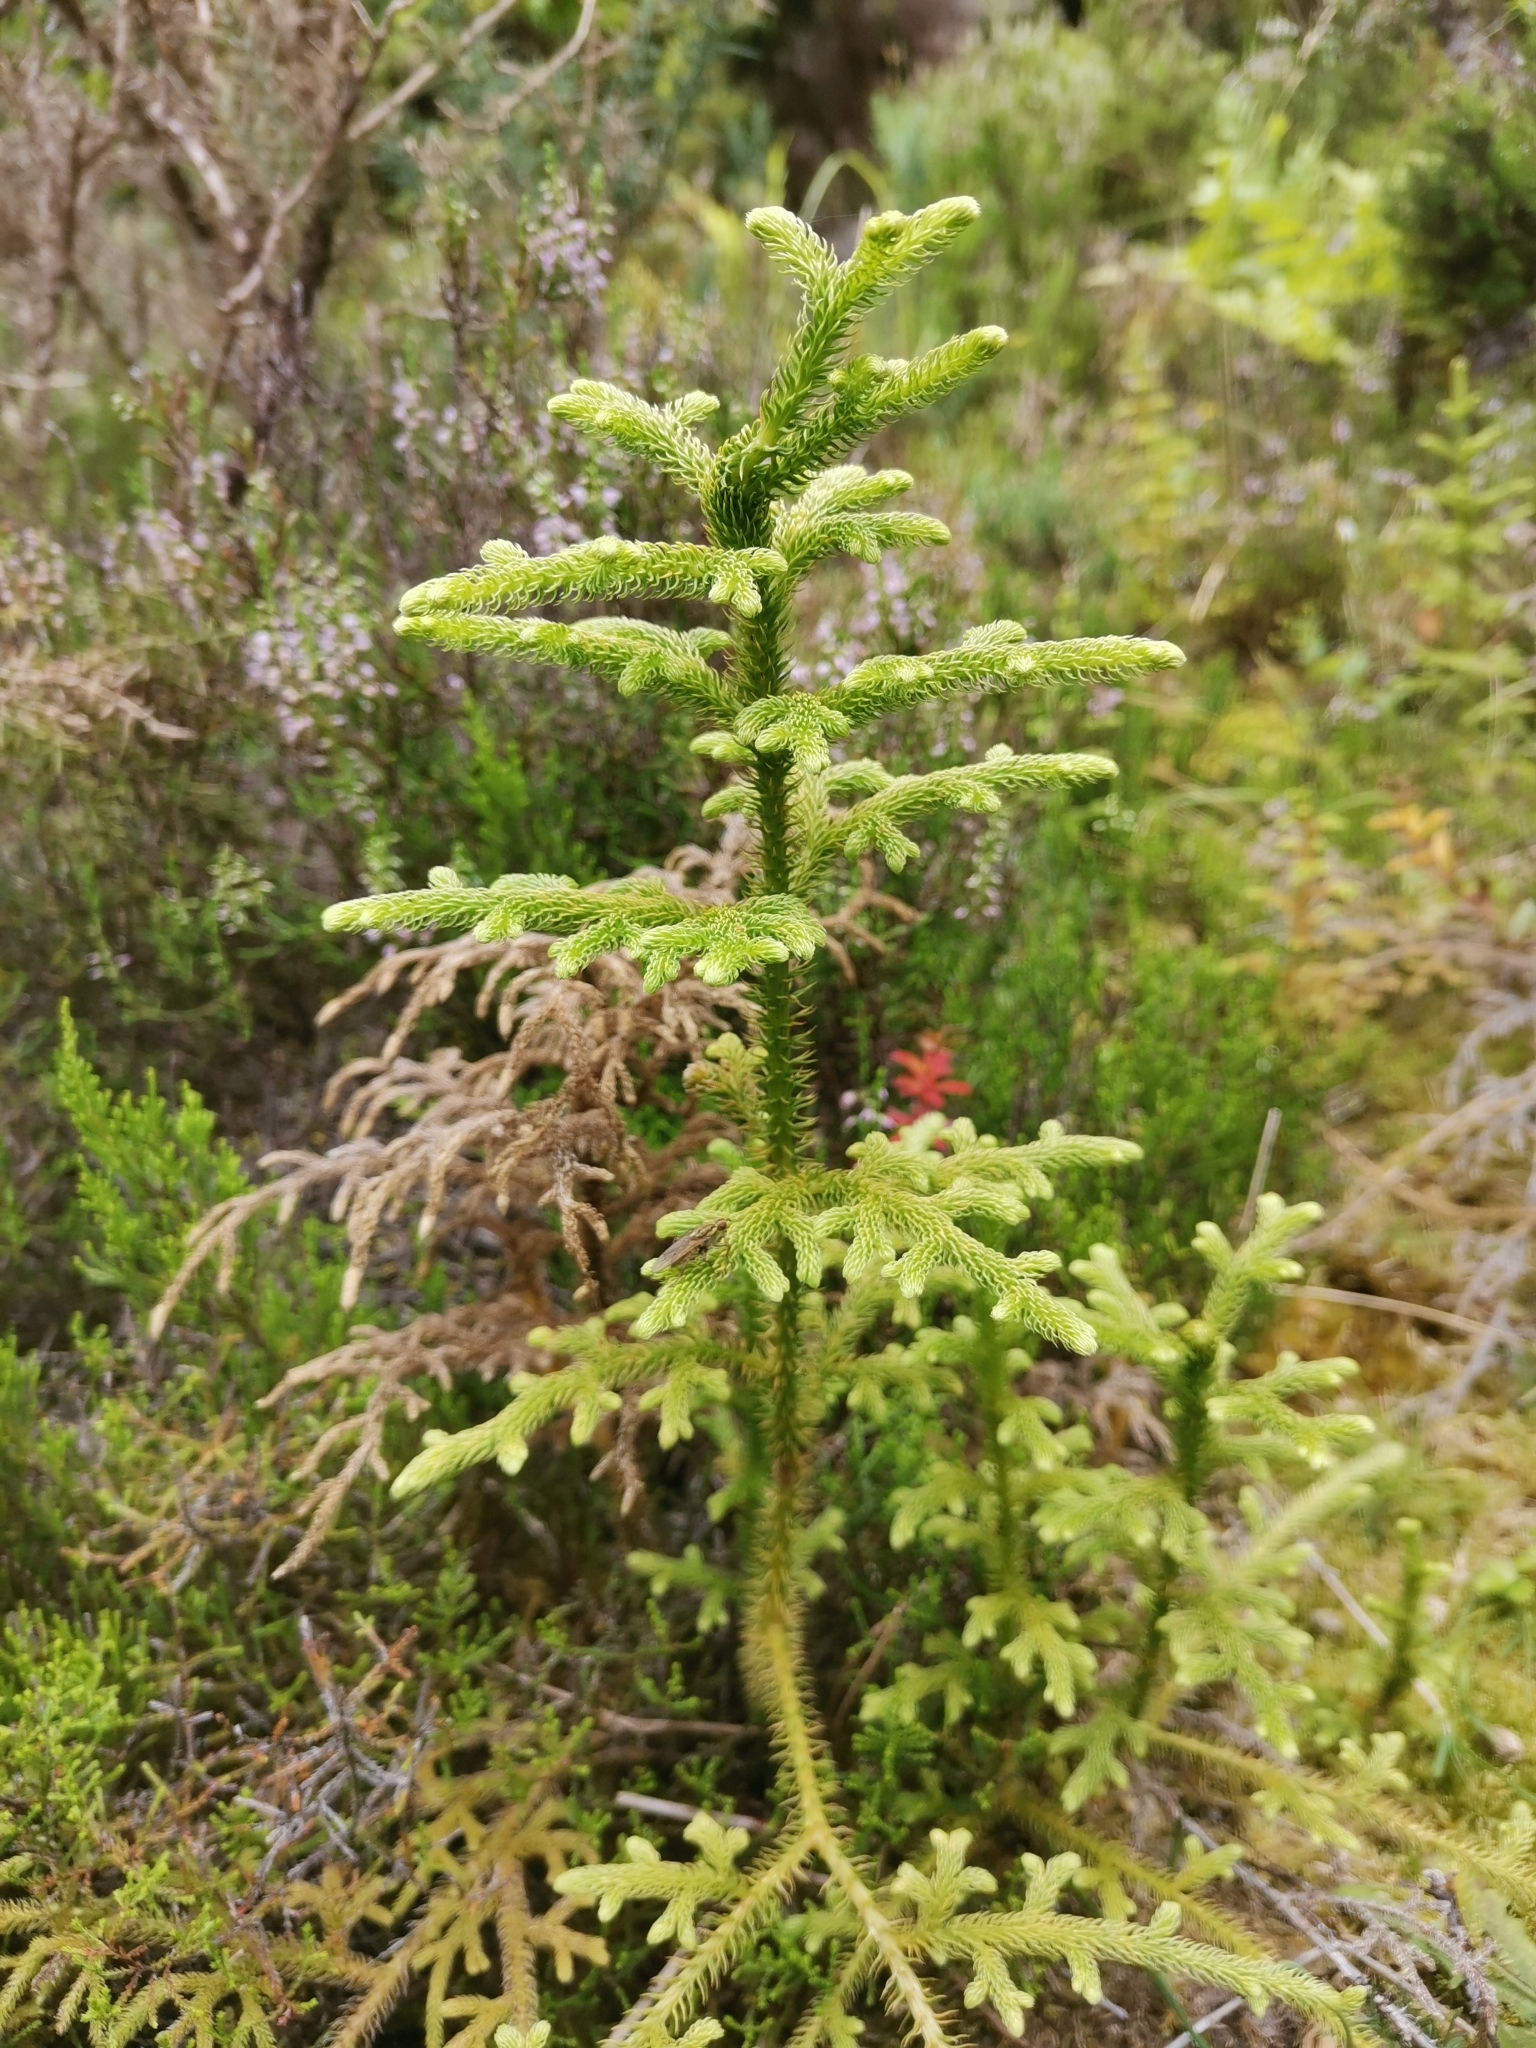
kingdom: Plantae
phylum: Tracheophyta
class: Lycopodiopsida
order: Lycopodiales
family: Lycopodiaceae
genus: Palhinhaea
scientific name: Palhinhaea cernua
